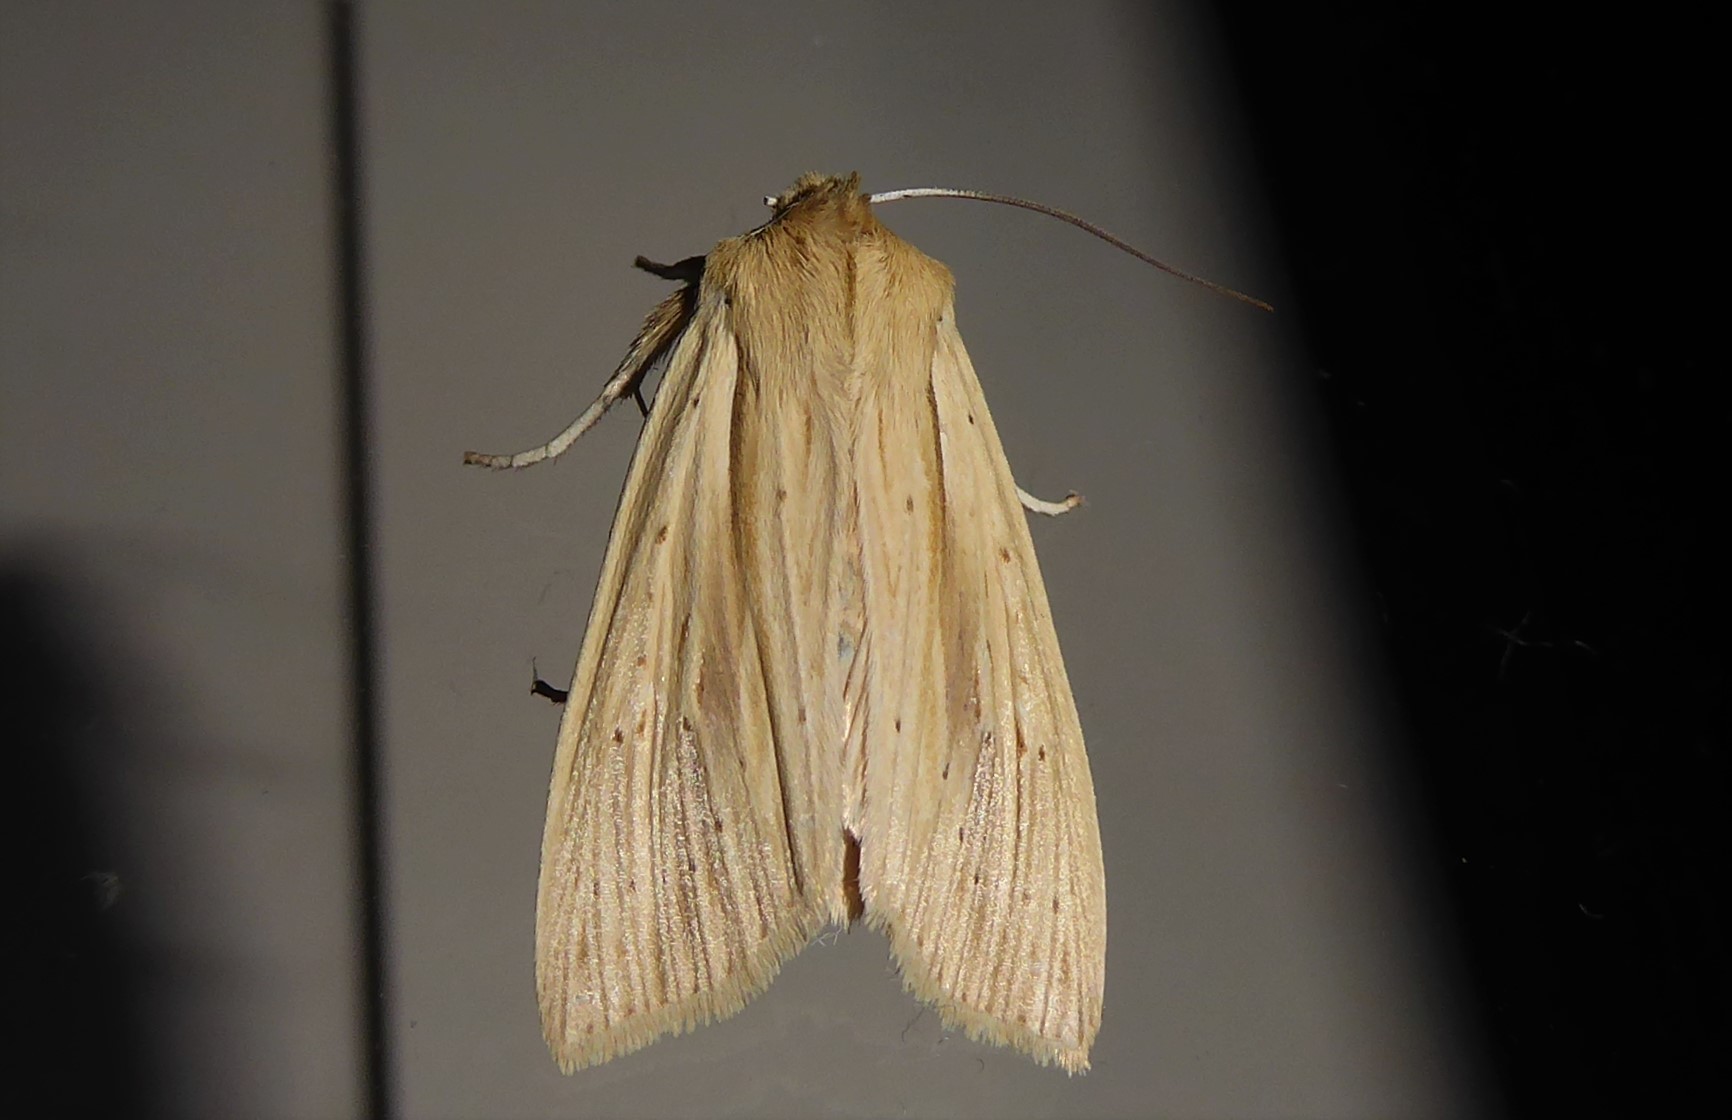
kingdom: Animalia
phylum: Arthropoda
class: Insecta
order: Lepidoptera
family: Noctuidae
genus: Ichneutica
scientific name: Ichneutica semivittata
